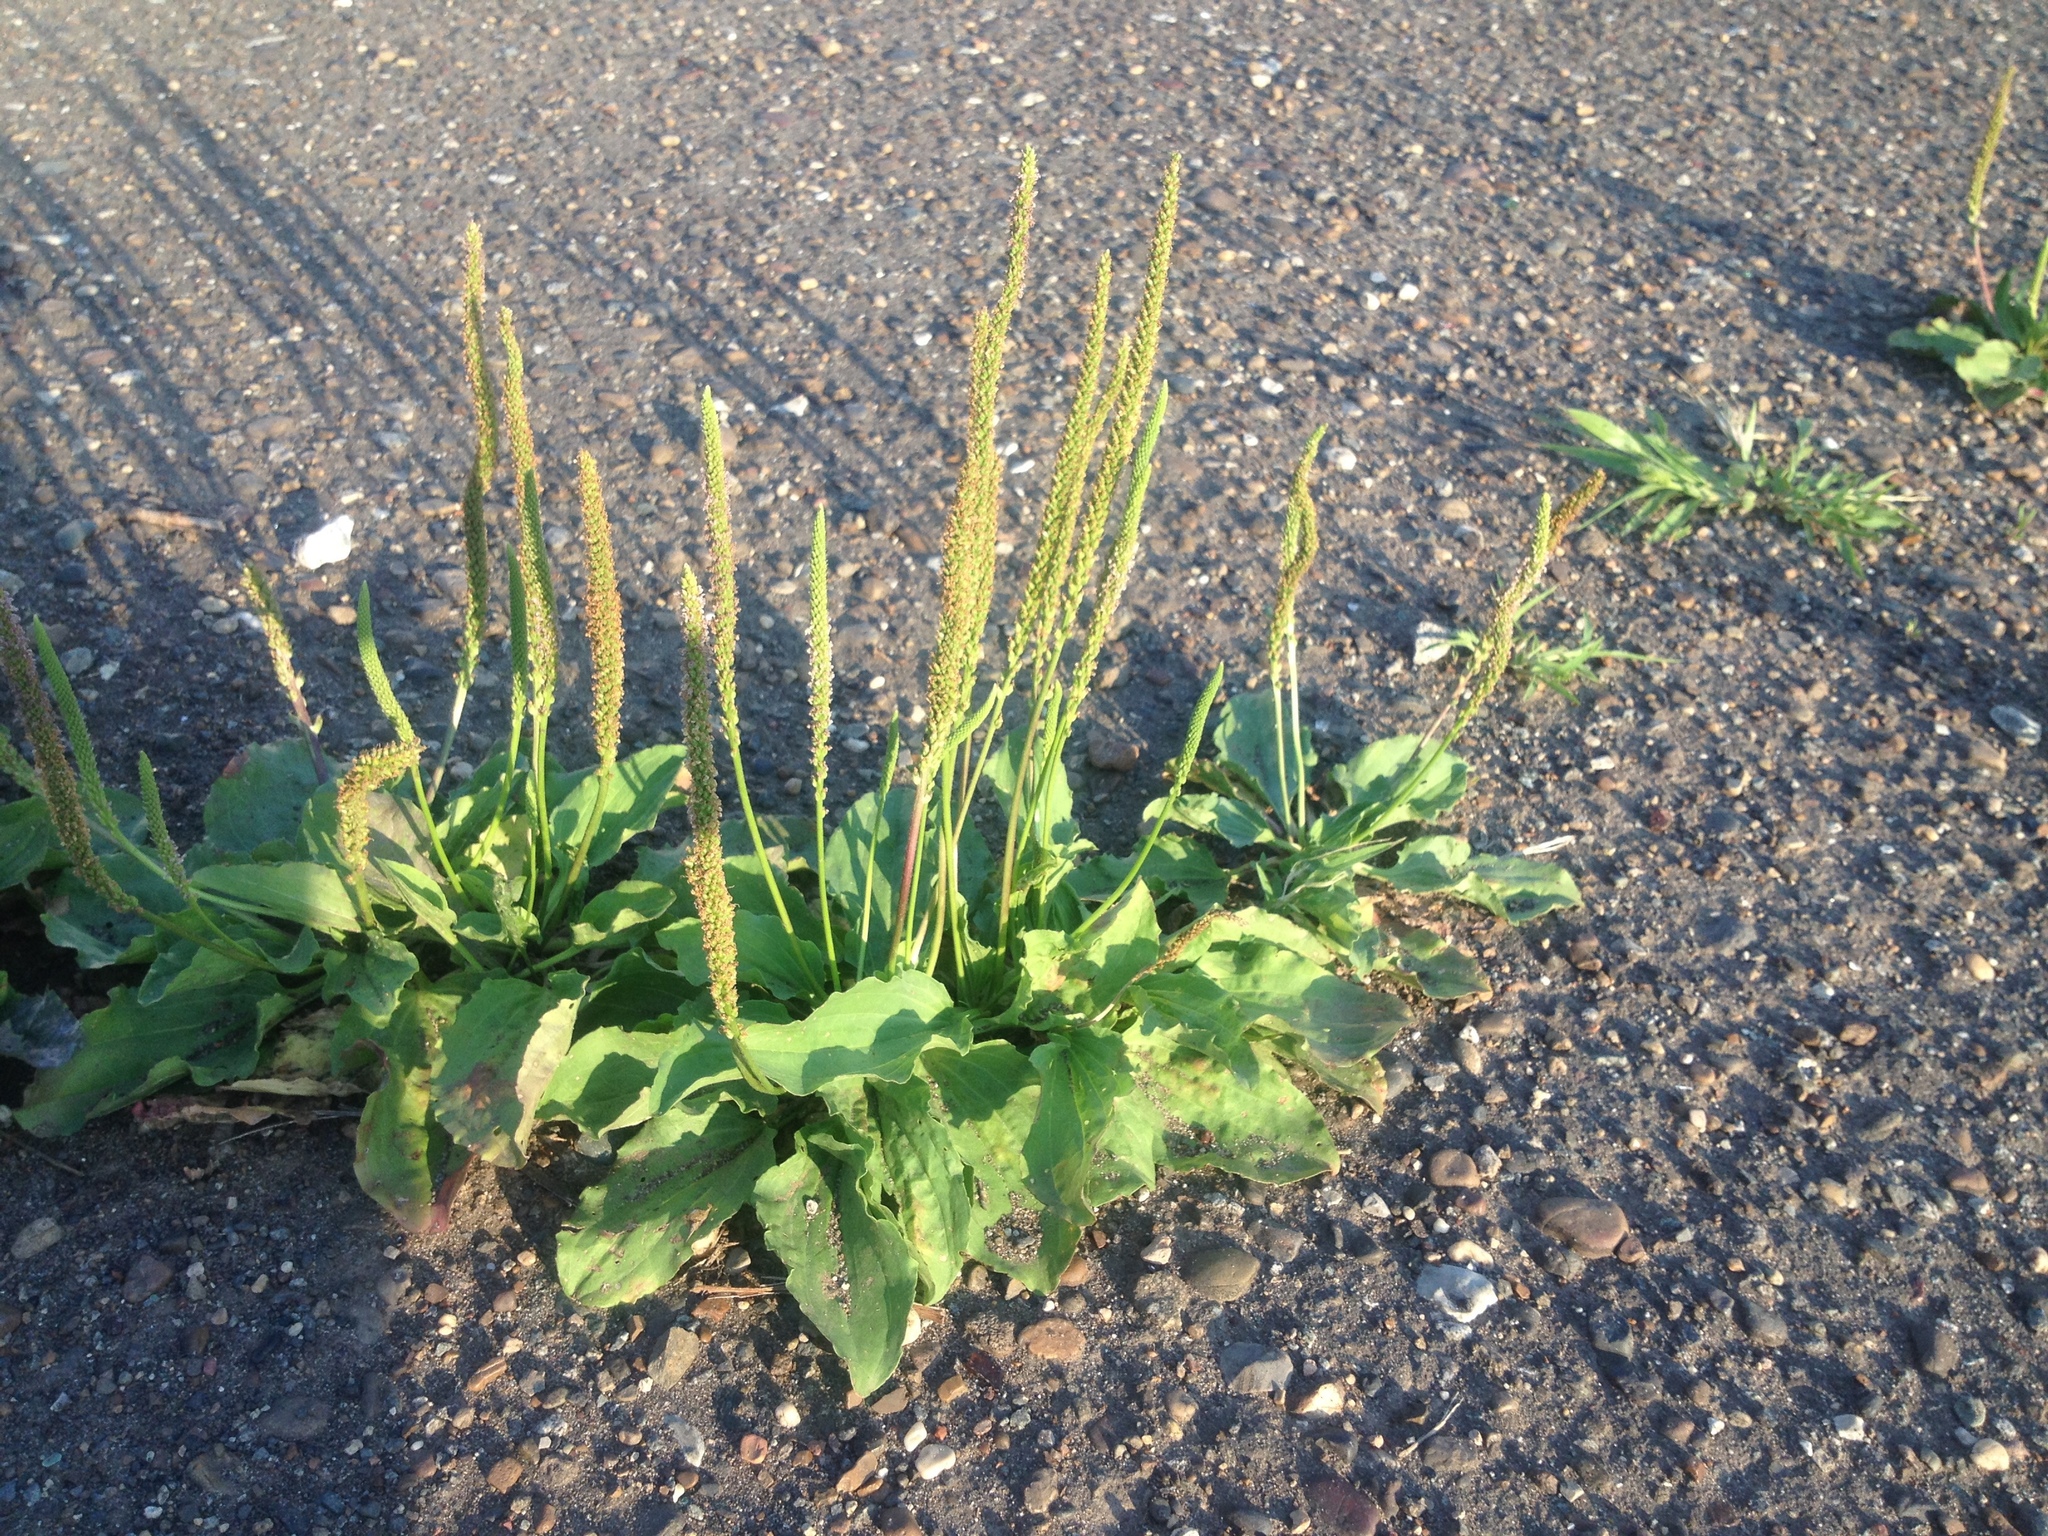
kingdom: Plantae
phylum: Tracheophyta
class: Magnoliopsida
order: Lamiales
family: Plantaginaceae
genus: Plantago
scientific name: Plantago major
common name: Common plantain
